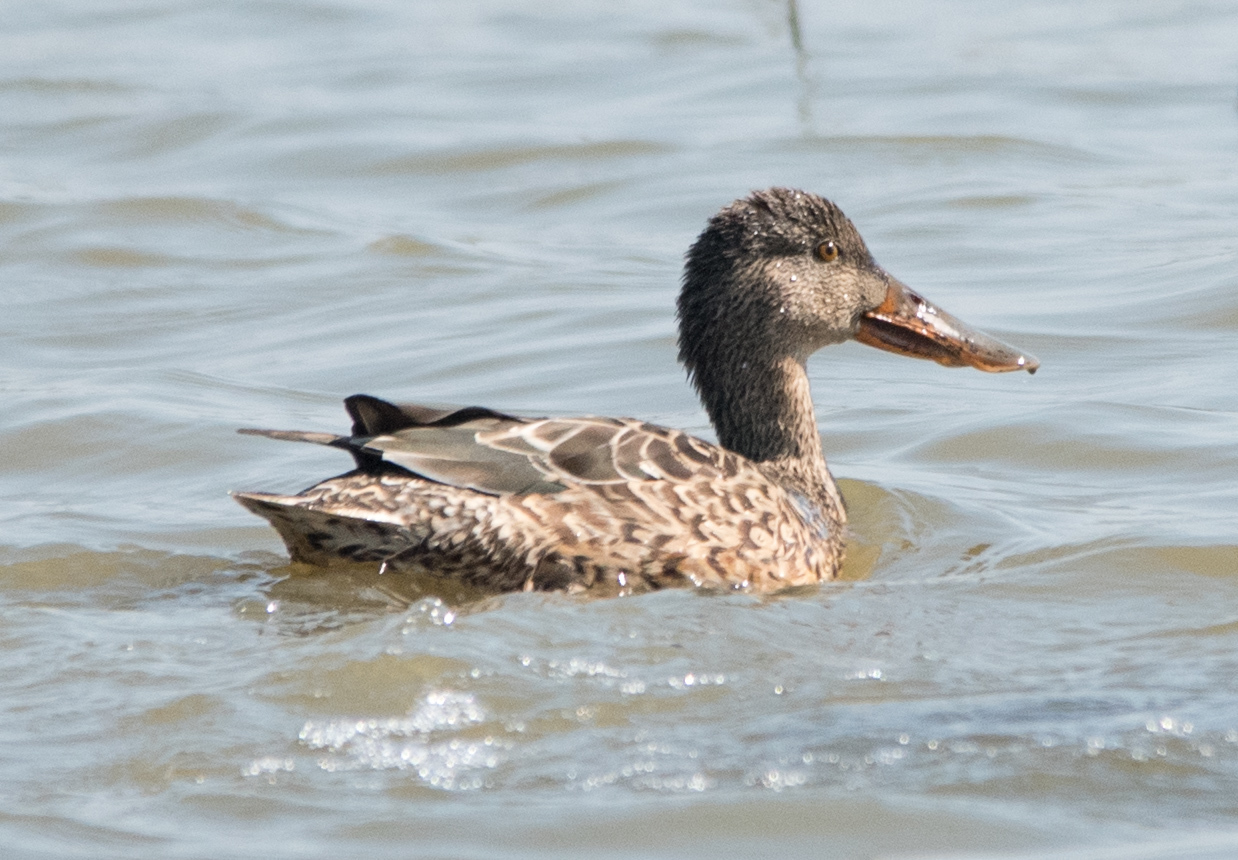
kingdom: Animalia
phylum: Chordata
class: Aves
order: Anseriformes
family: Anatidae
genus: Spatula
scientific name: Spatula clypeata
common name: Northern shoveler
